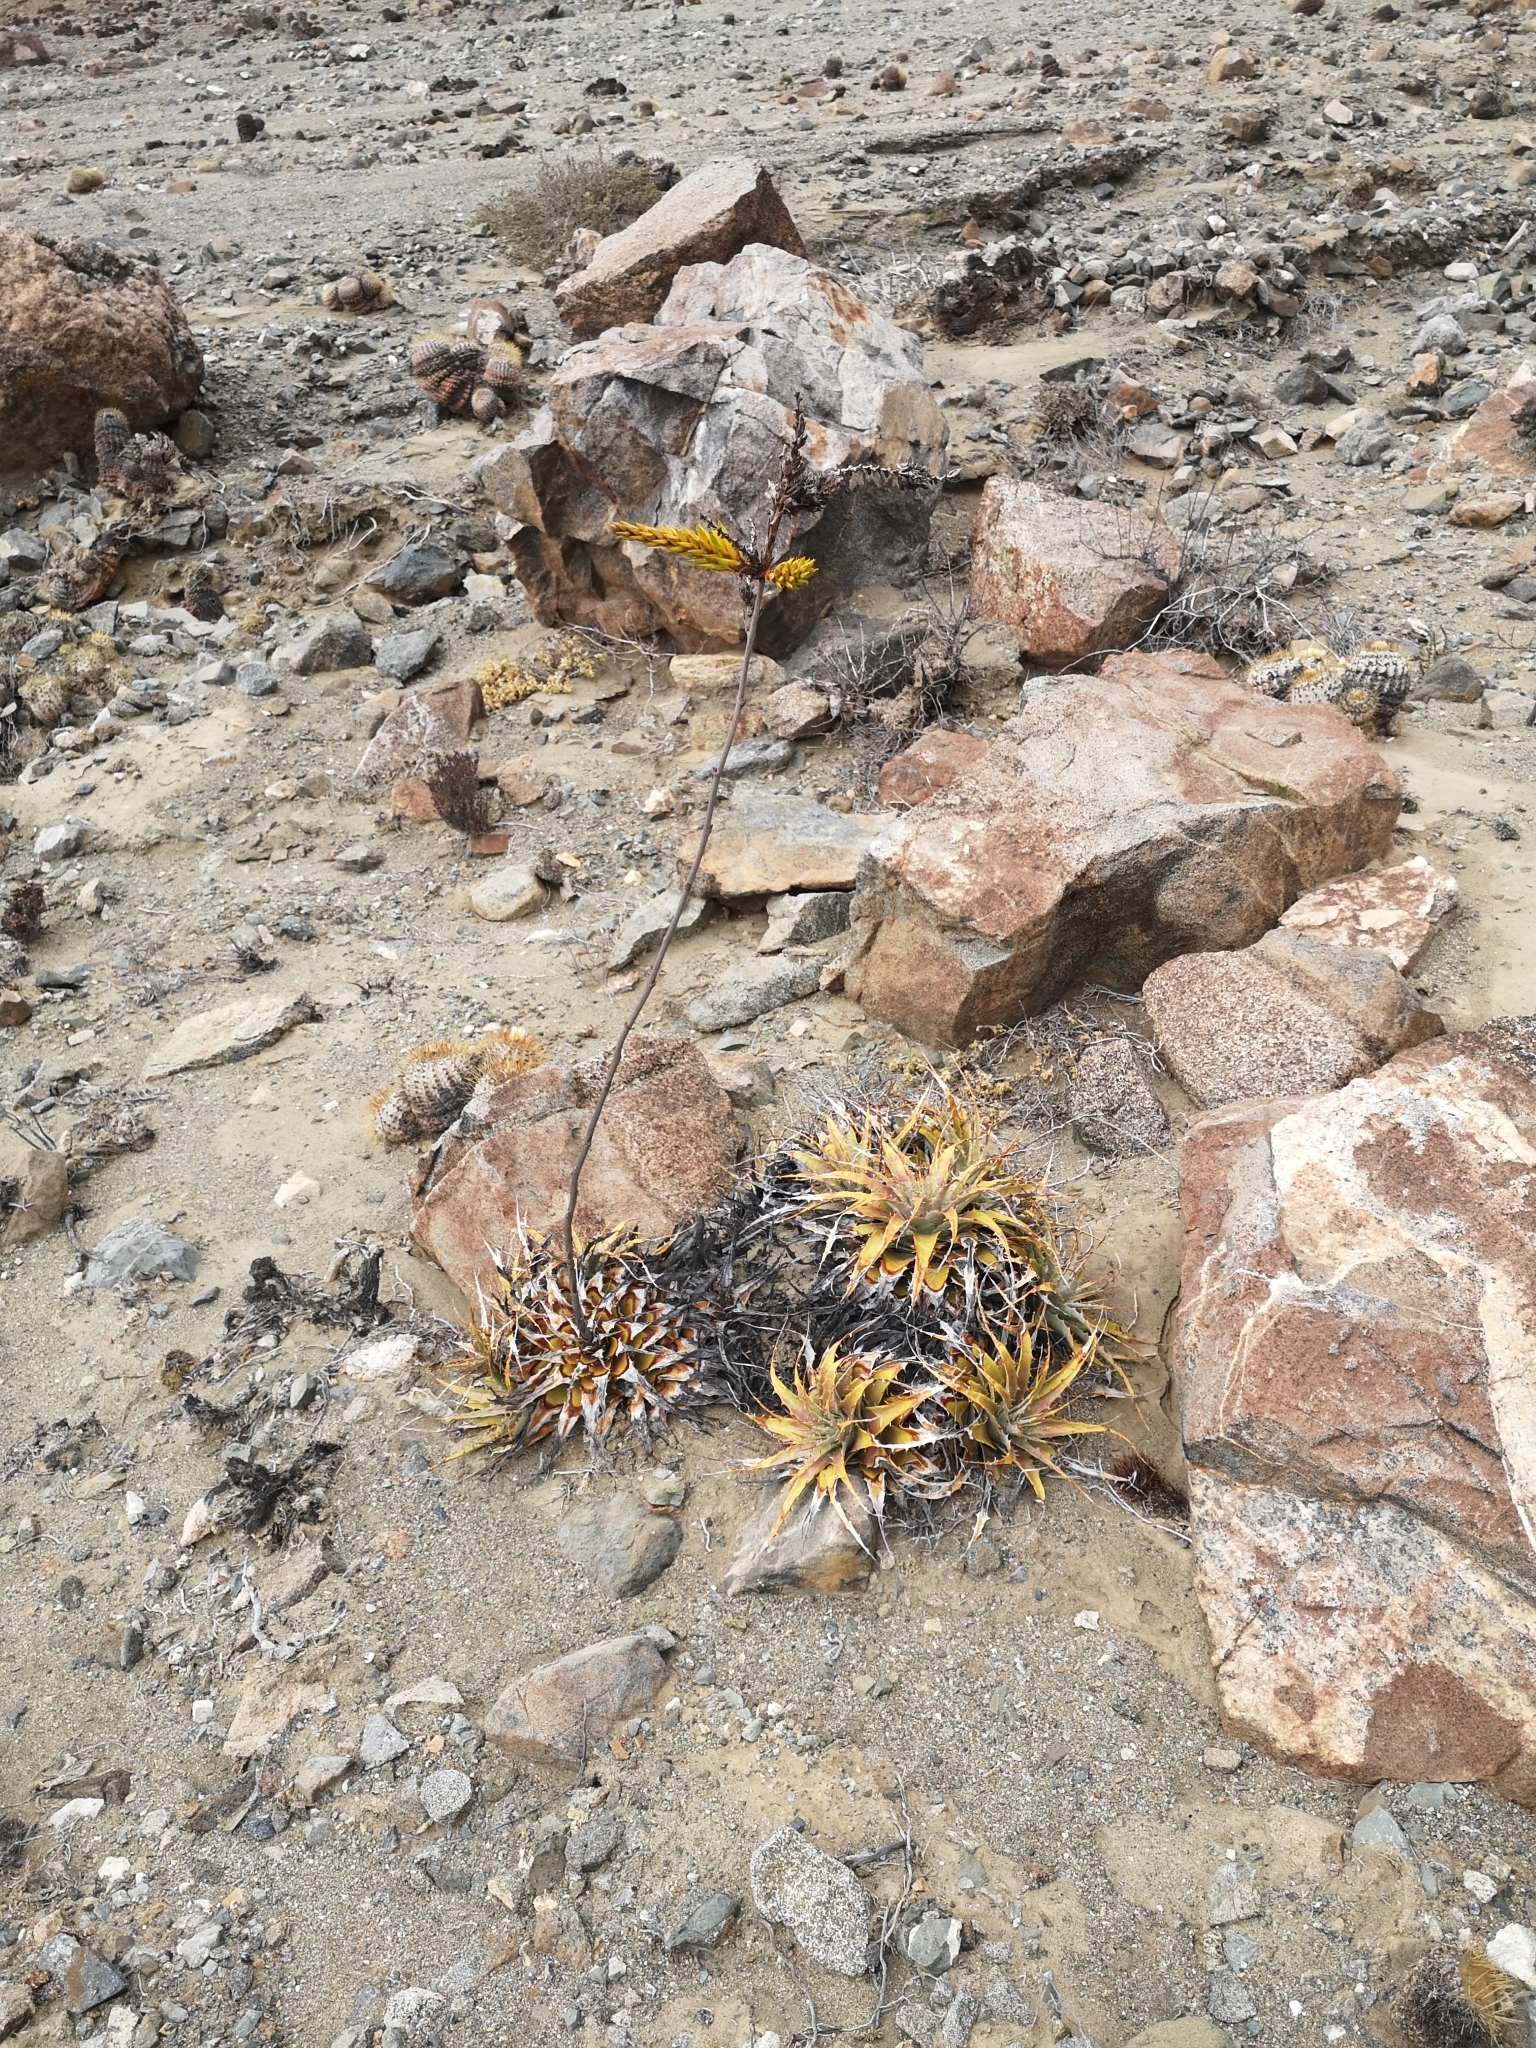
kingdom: Plantae
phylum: Tracheophyta
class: Liliopsida
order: Poales
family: Bromeliaceae
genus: Deuterocohnia
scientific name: Deuterocohnia chrysantha
